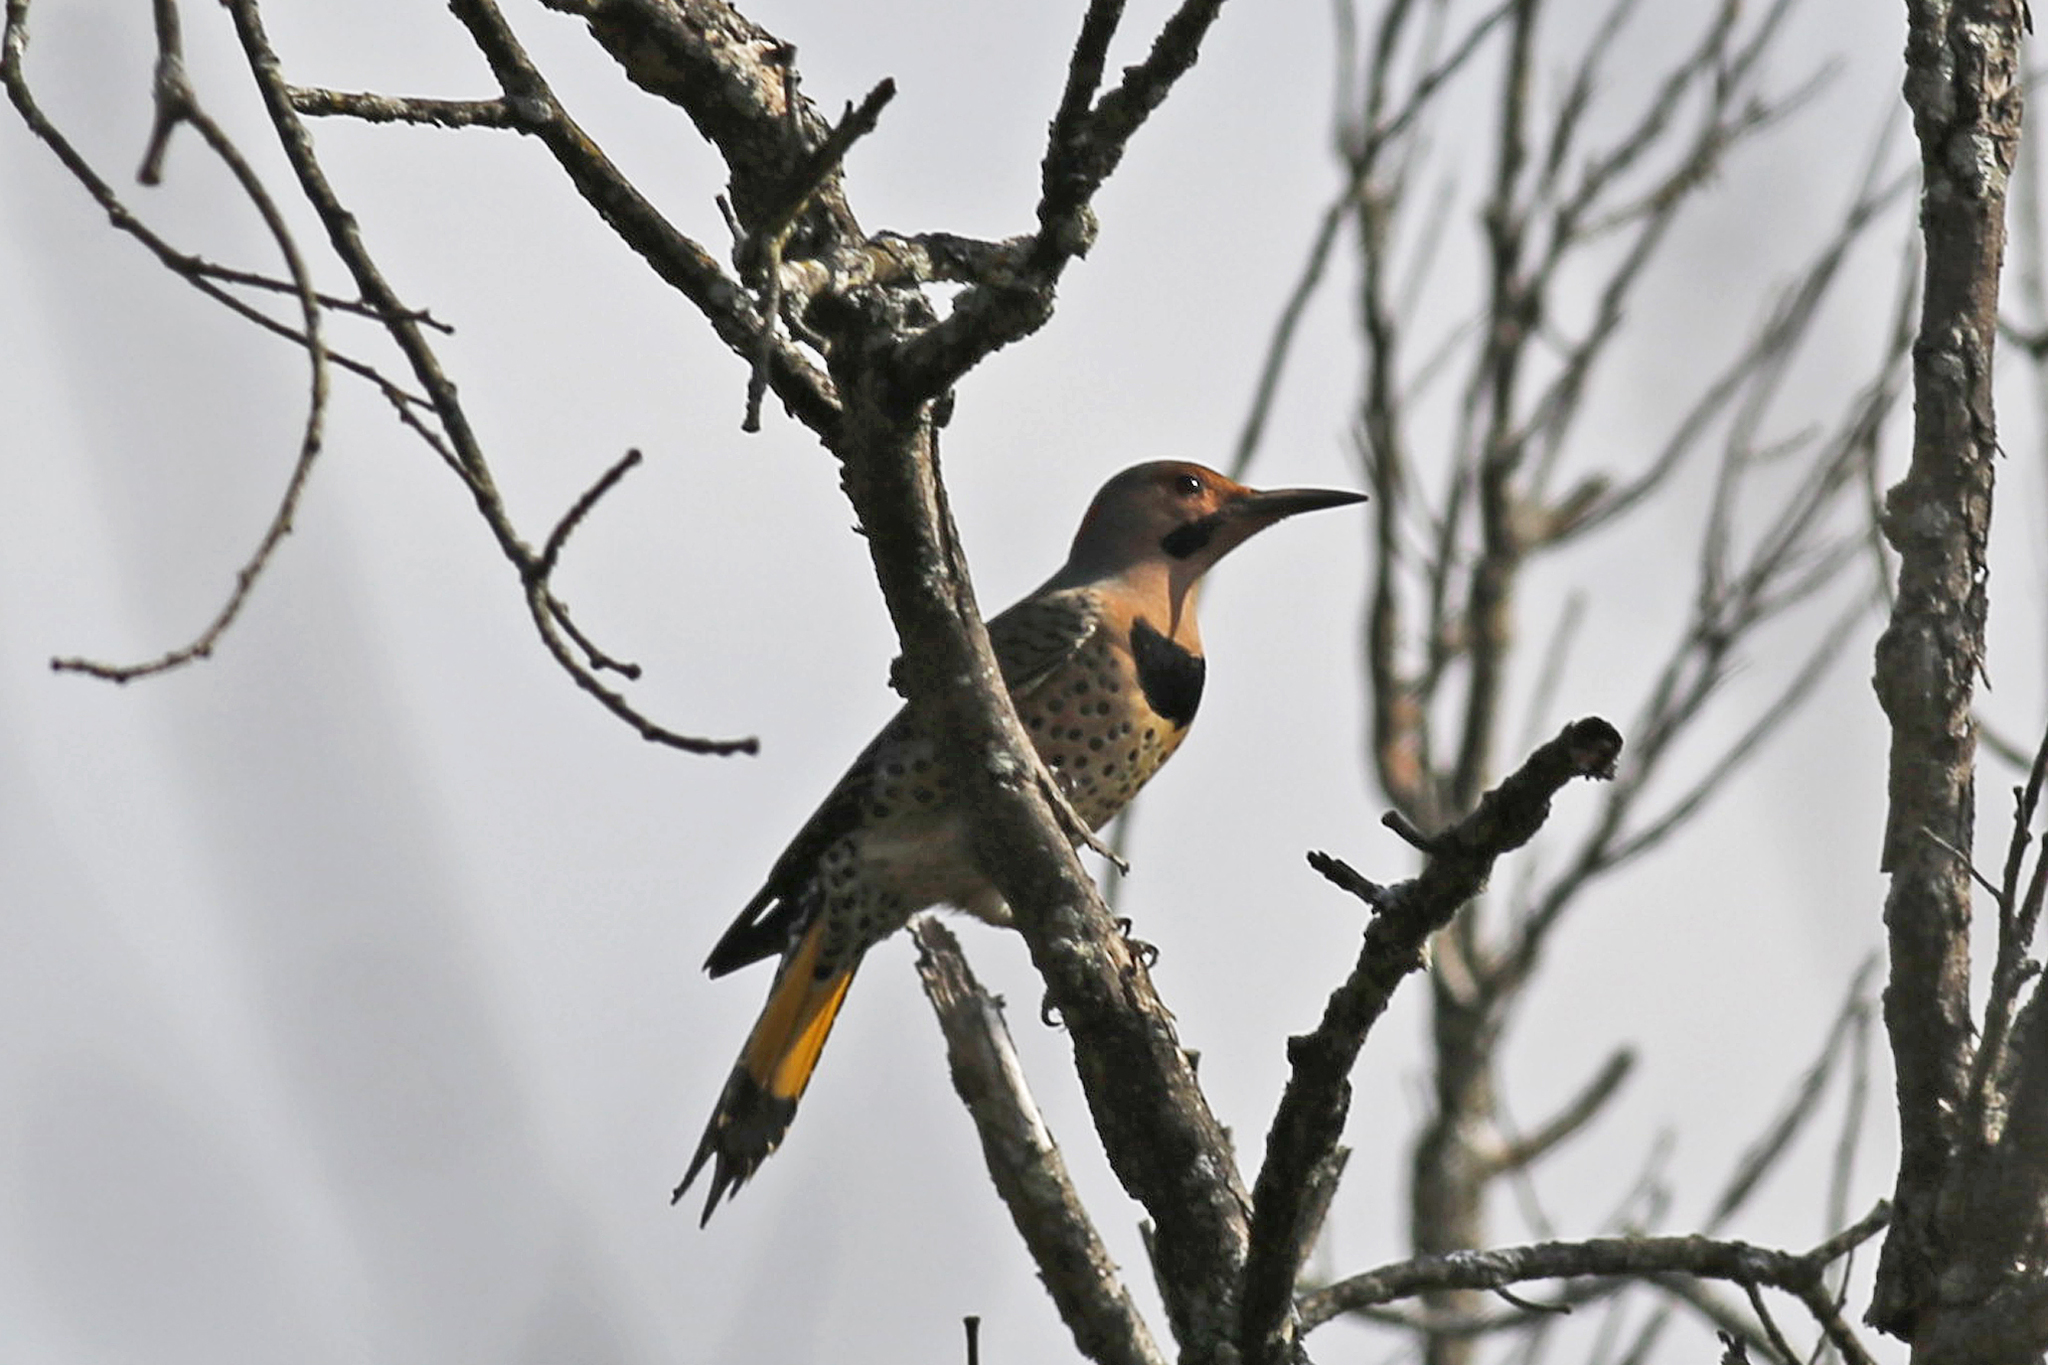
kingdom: Animalia
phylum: Chordata
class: Aves
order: Piciformes
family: Picidae
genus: Colaptes
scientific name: Colaptes auratus
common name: Northern flicker
